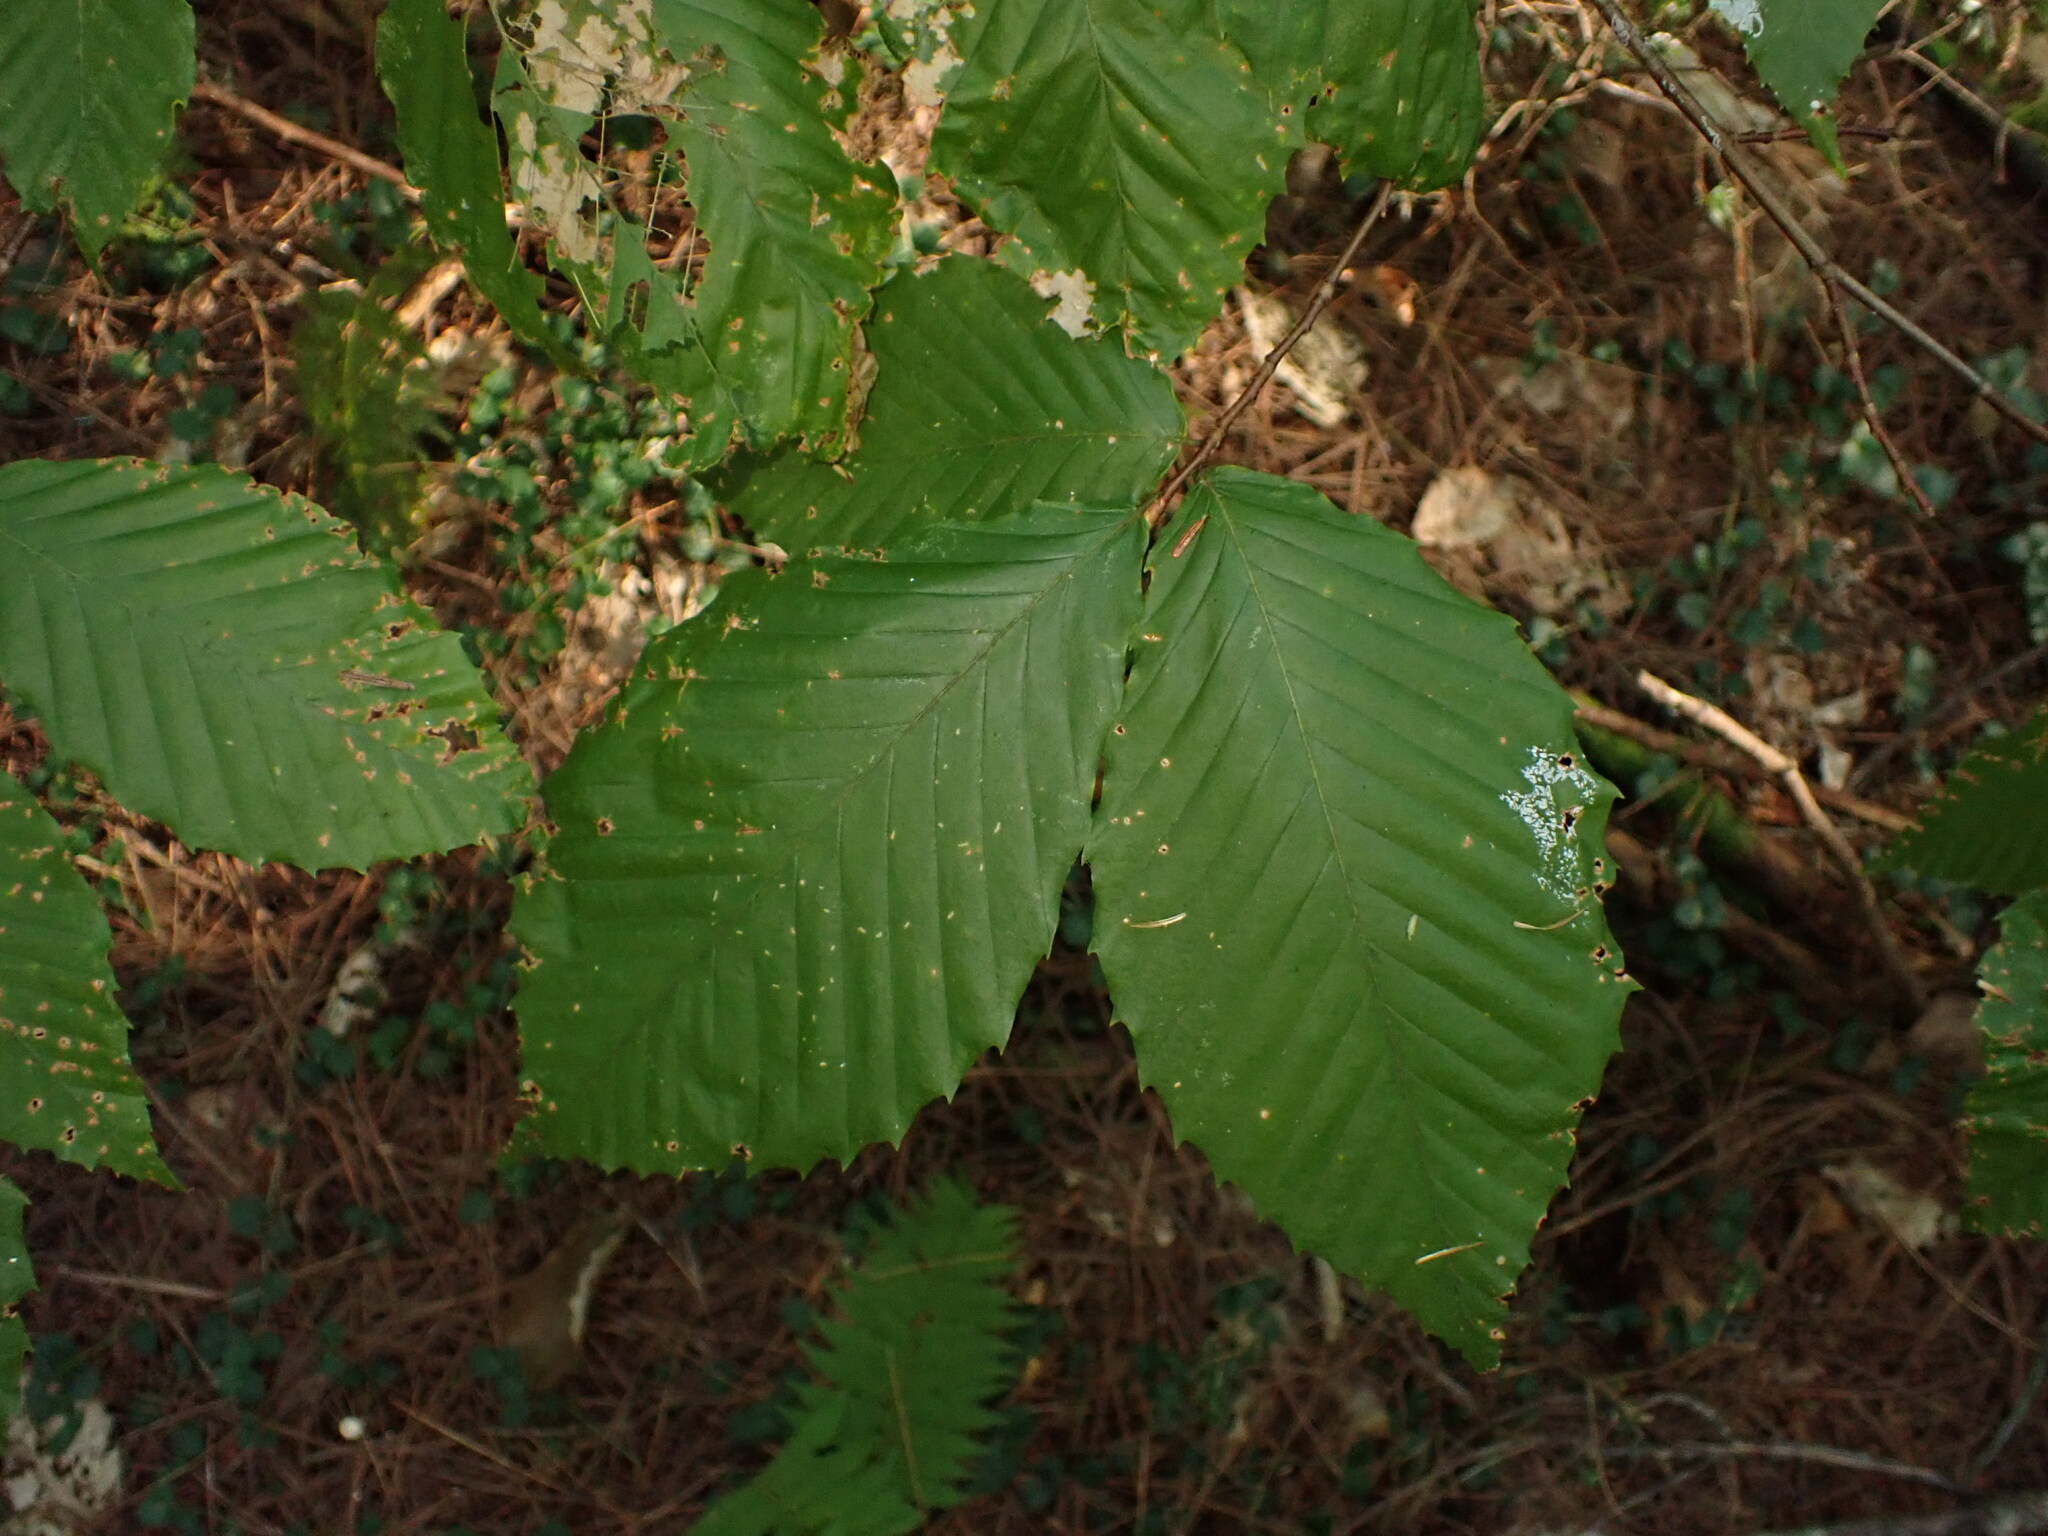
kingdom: Plantae
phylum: Tracheophyta
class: Magnoliopsida
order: Fagales
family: Fagaceae
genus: Fagus
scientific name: Fagus grandifolia
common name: American beech
